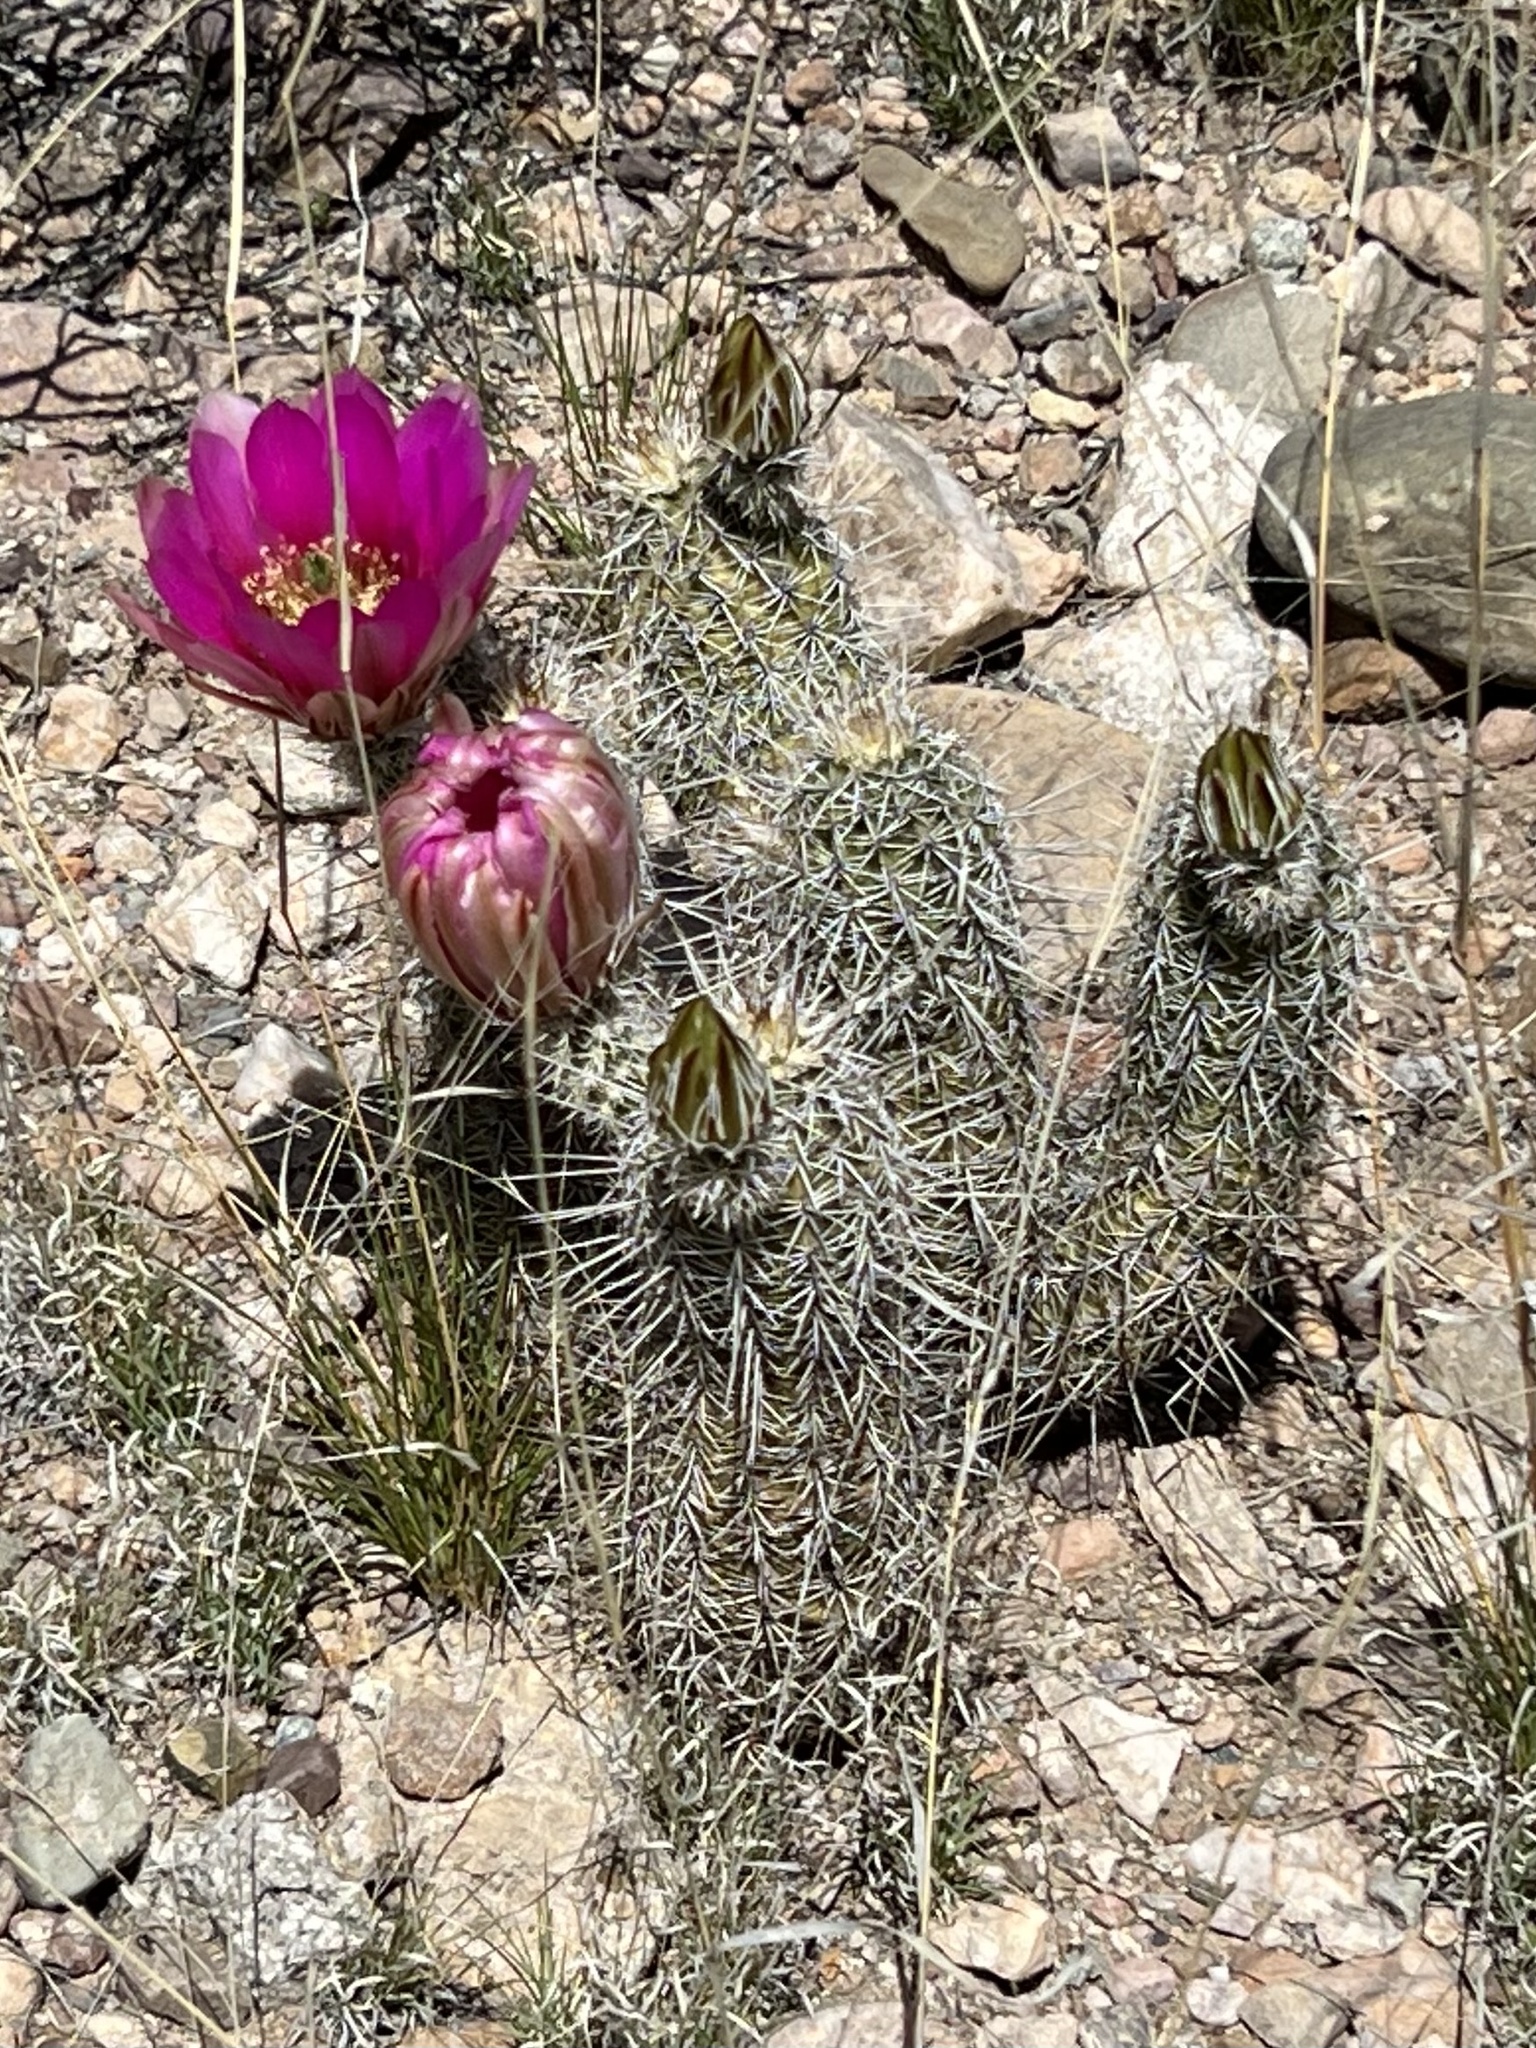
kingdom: Plantae
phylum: Tracheophyta
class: Magnoliopsida
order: Caryophyllales
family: Cactaceae
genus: Echinocereus
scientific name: Echinocereus fasciculatus
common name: Bundle hedgehog
